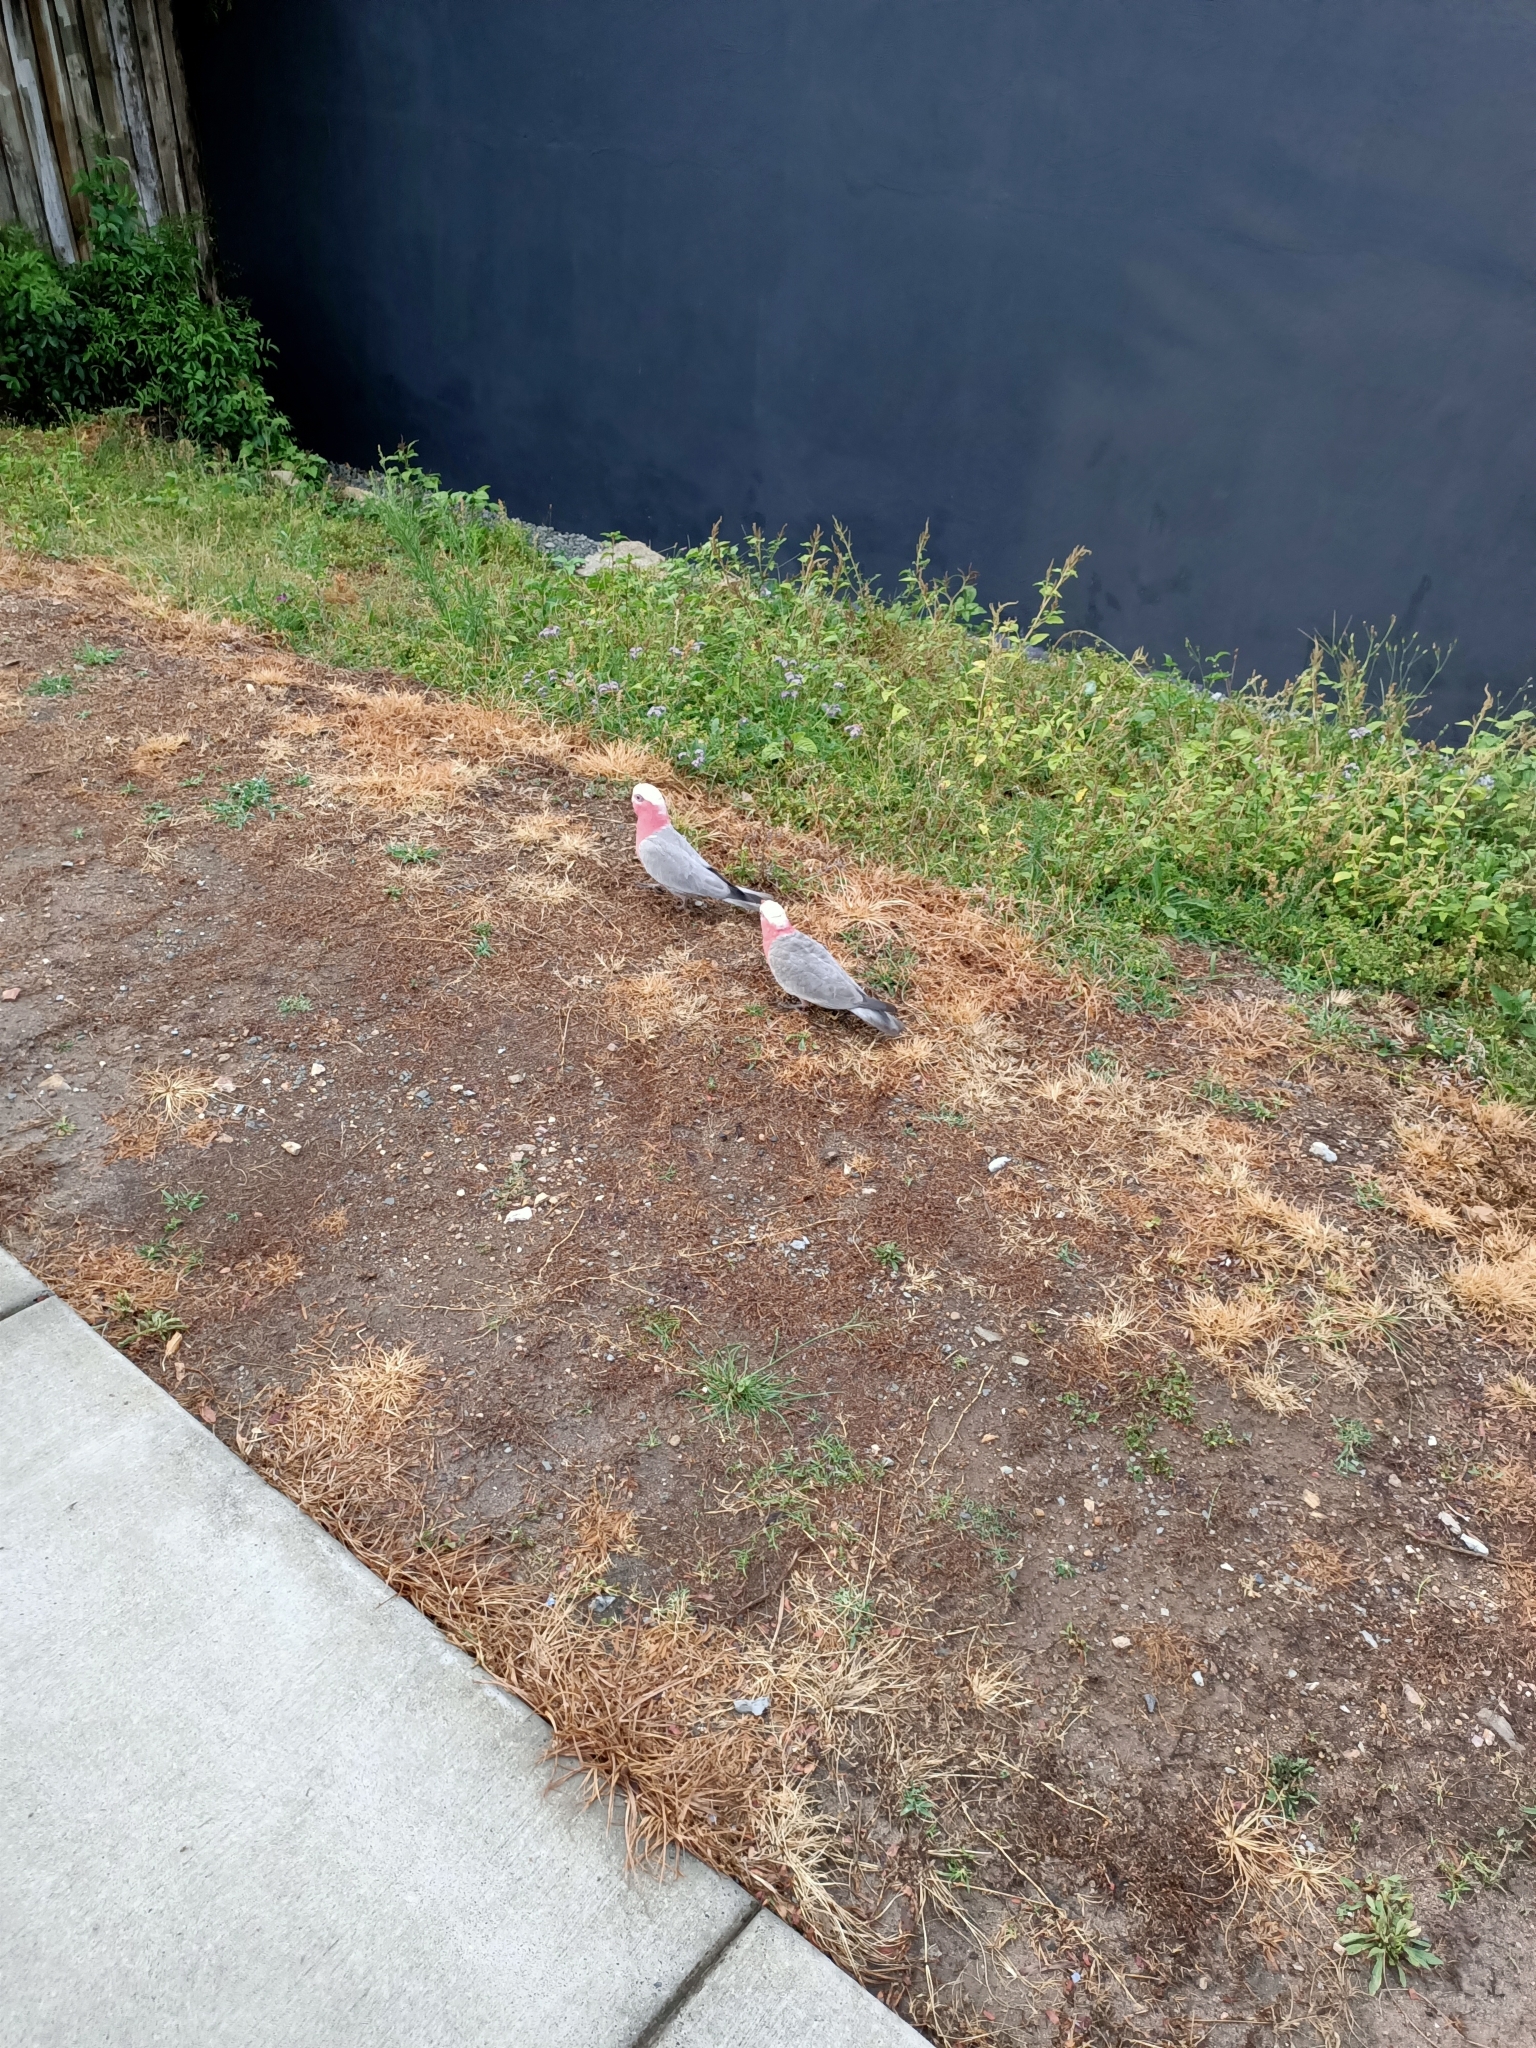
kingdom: Animalia
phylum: Chordata
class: Aves
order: Psittaciformes
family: Psittacidae
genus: Eolophus
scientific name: Eolophus roseicapilla
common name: Galah
